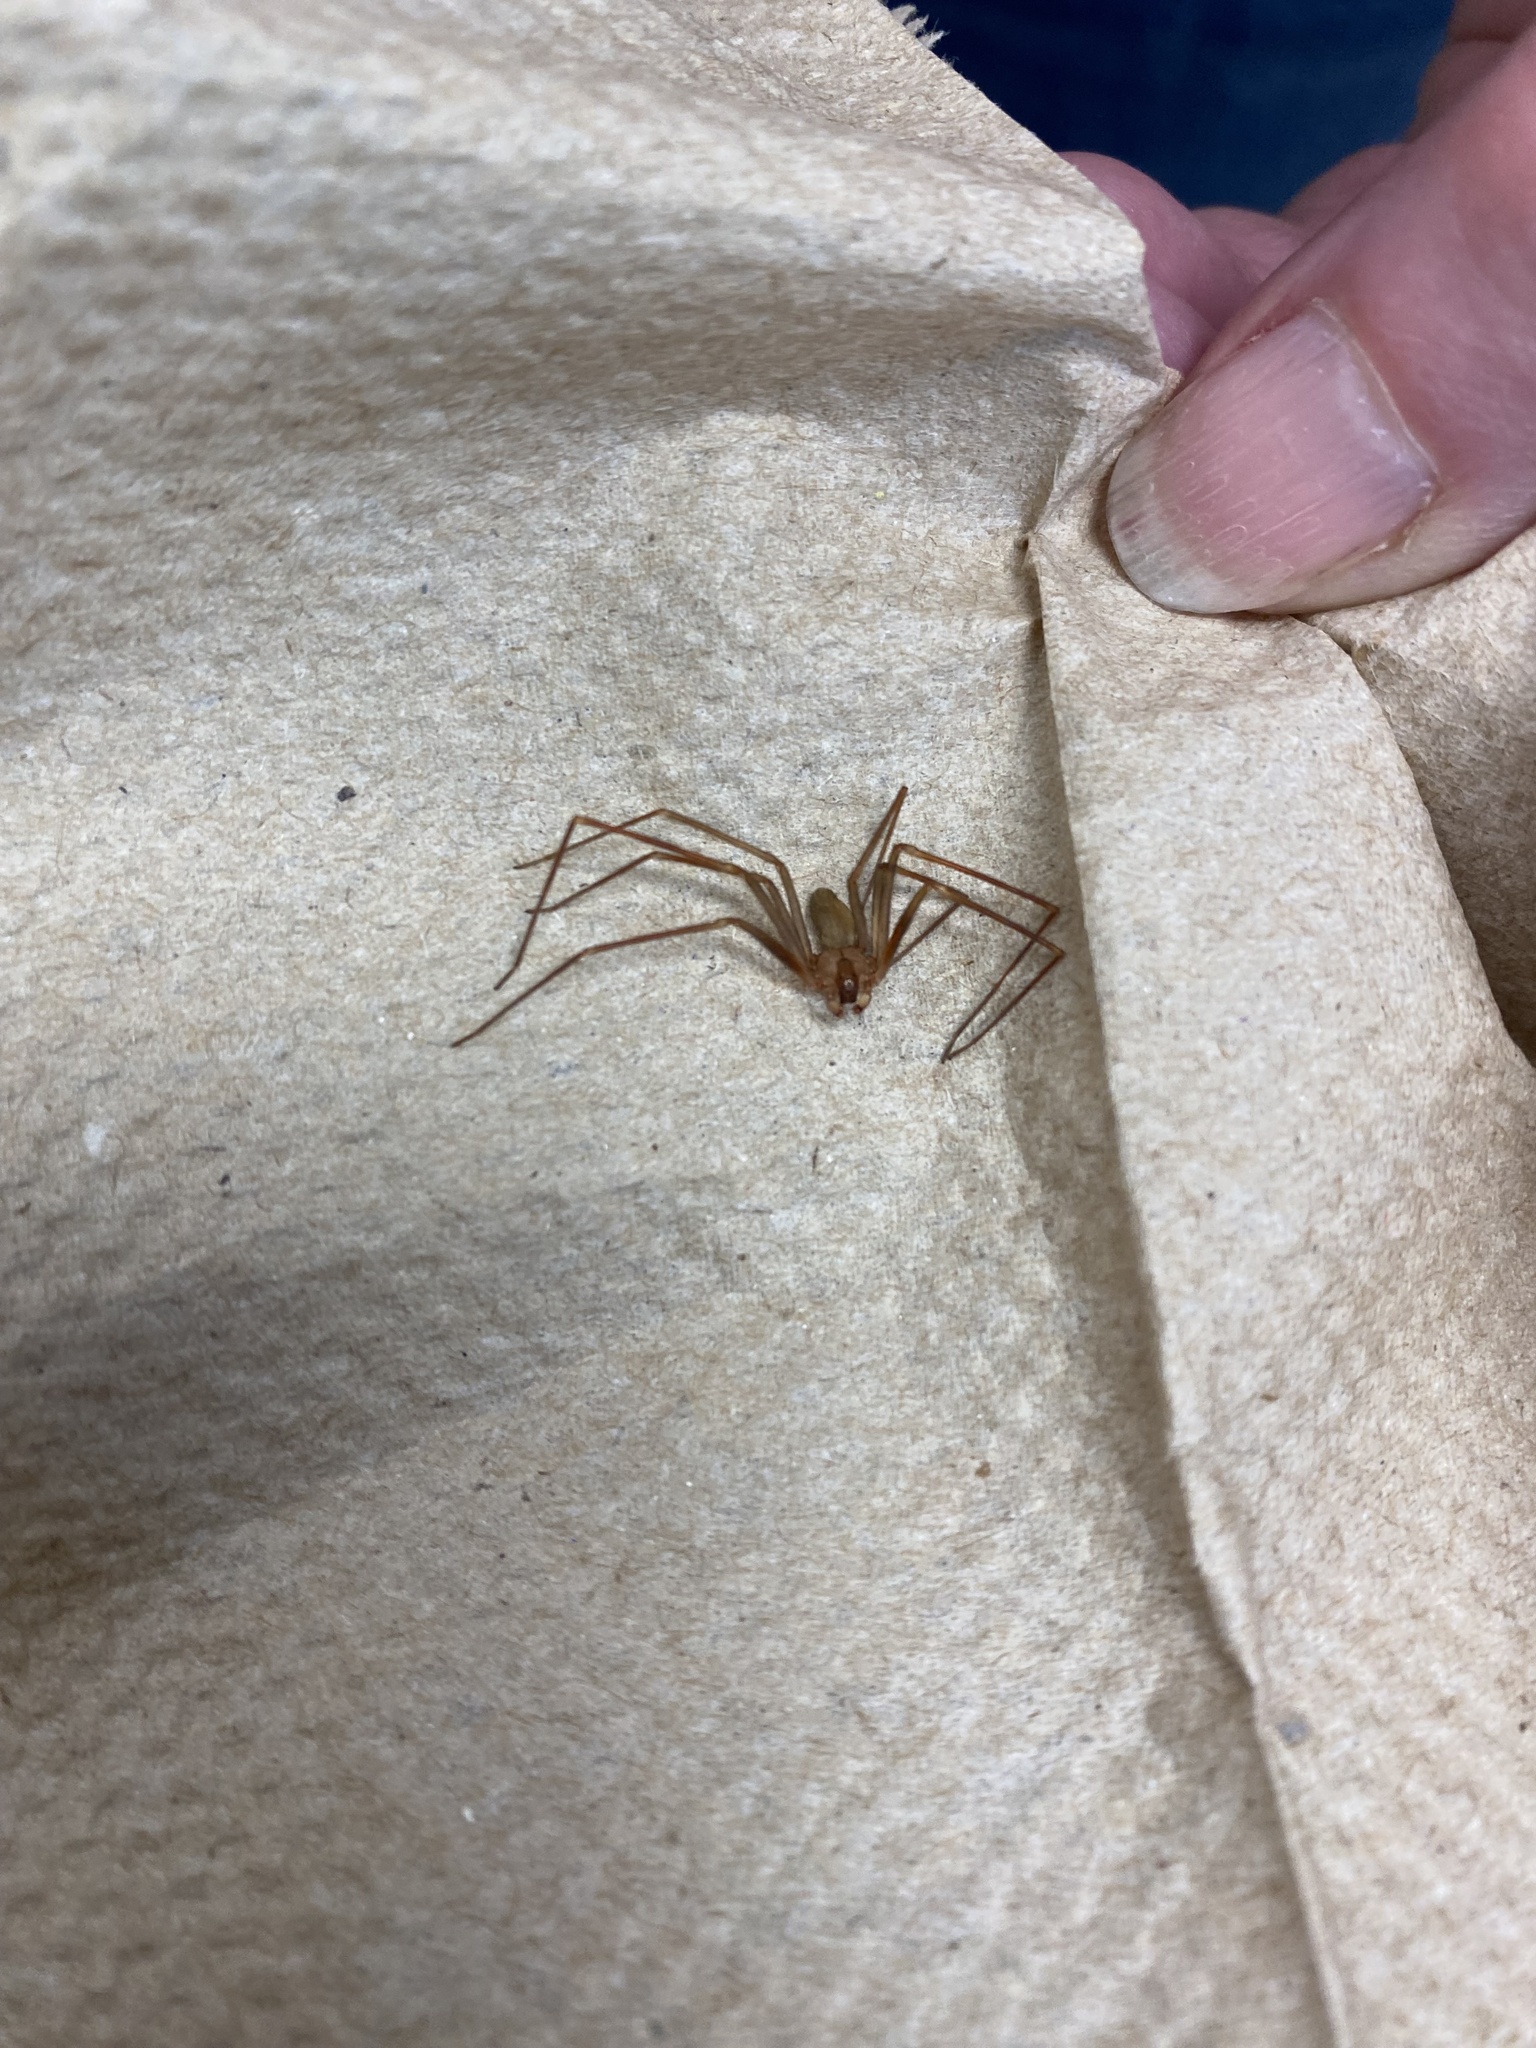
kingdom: Animalia
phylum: Arthropoda
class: Arachnida
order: Araneae
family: Sicariidae
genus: Loxosceles
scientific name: Loxosceles reclusa
